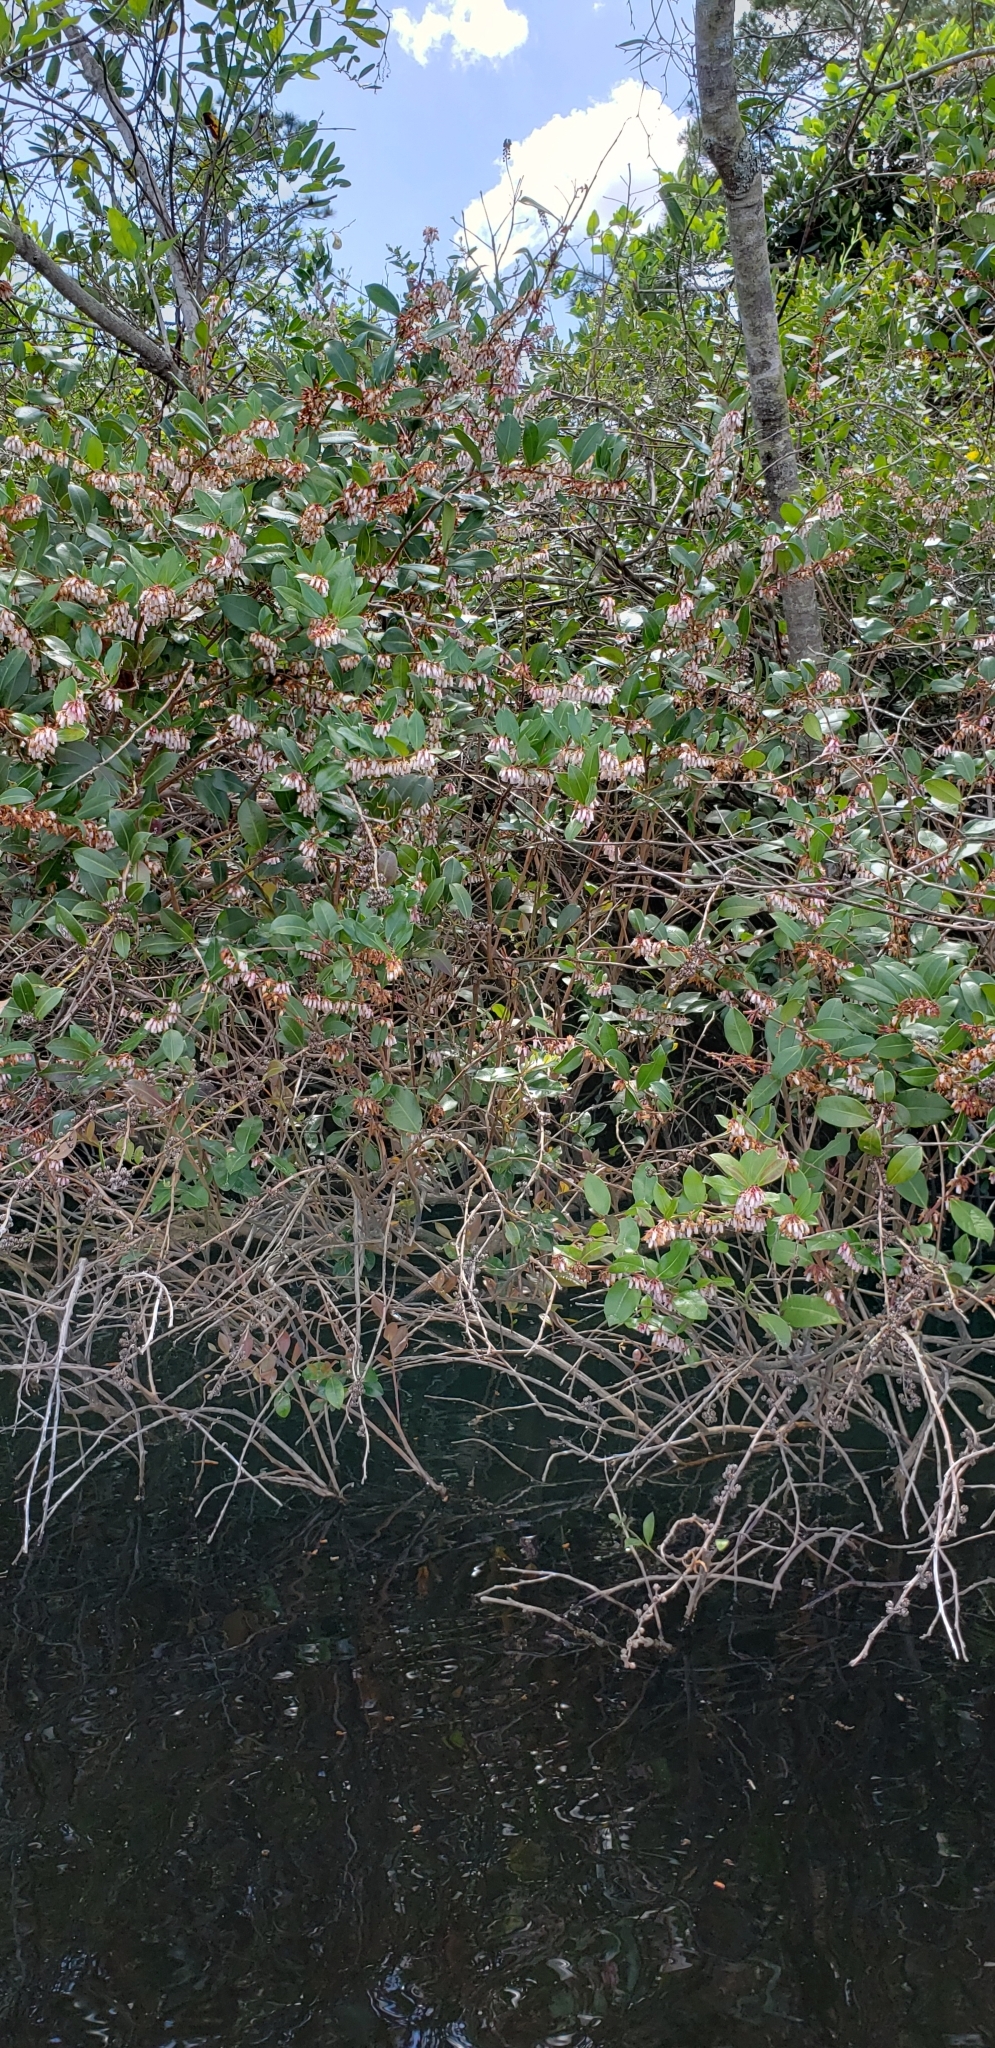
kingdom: Plantae
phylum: Tracheophyta
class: Magnoliopsida
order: Ericales
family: Ericaceae
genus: Lyonia
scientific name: Lyonia lucida
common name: Fetterbush
